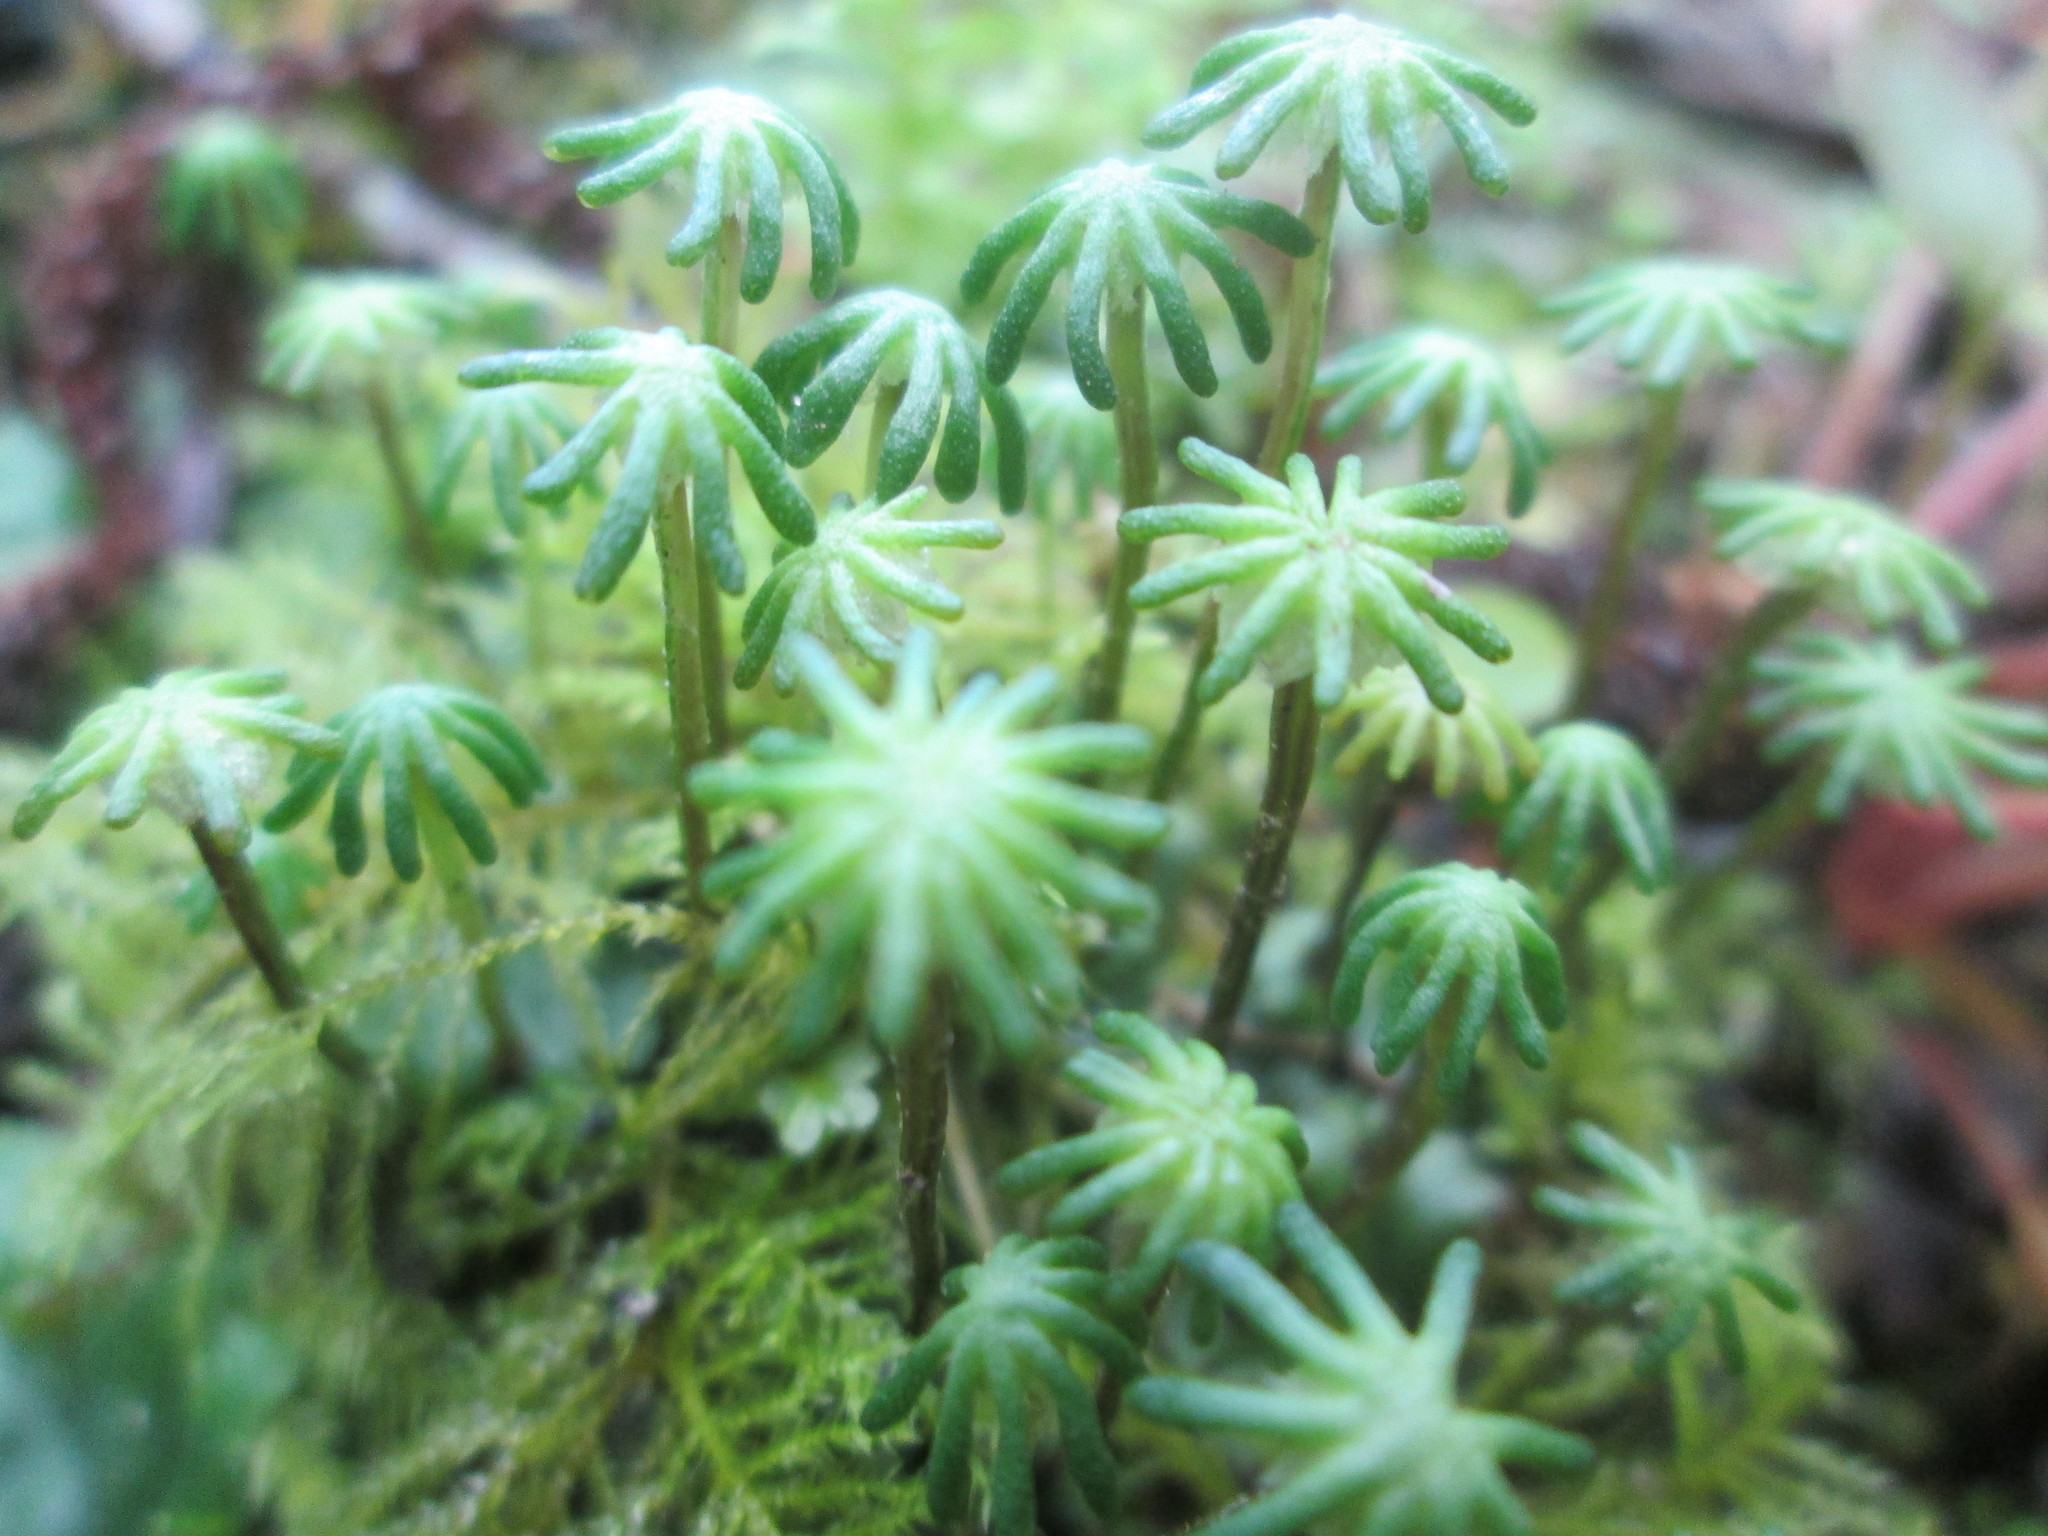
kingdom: Plantae
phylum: Marchantiophyta
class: Marchantiopsida
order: Marchantiales
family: Marchantiaceae
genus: Marchantia
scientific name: Marchantia polymorpha
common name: Common liverwort
